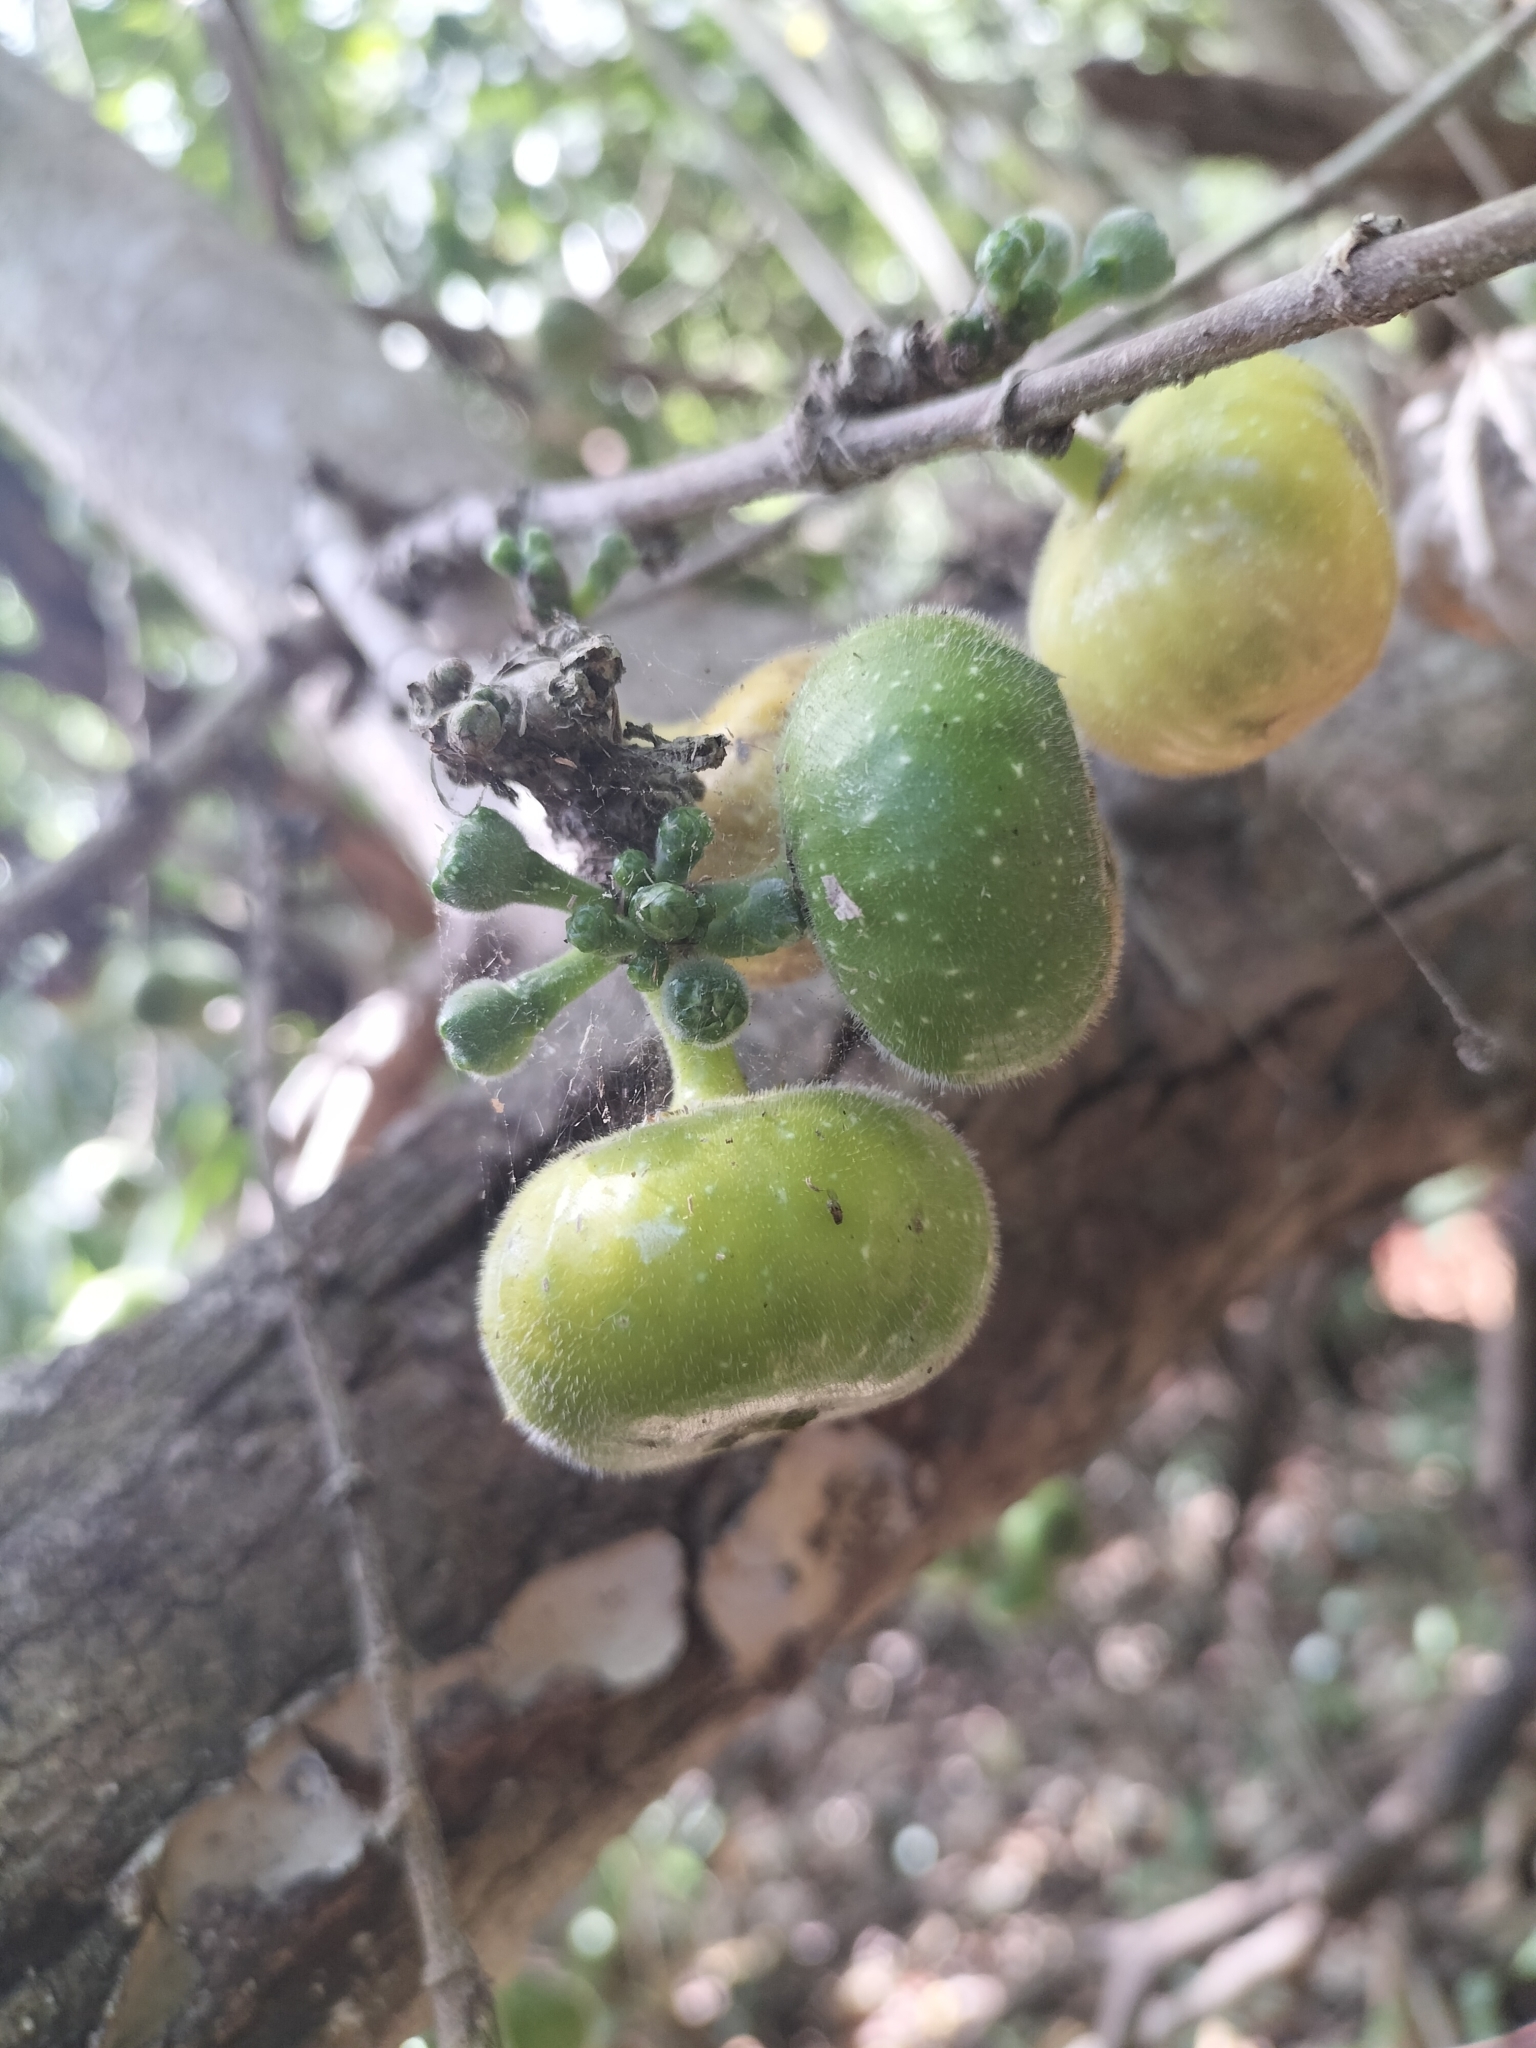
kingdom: Plantae
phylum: Tracheophyta
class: Magnoliopsida
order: Rosales
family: Moraceae
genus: Ficus
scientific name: Ficus hispida
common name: Hairy fig
